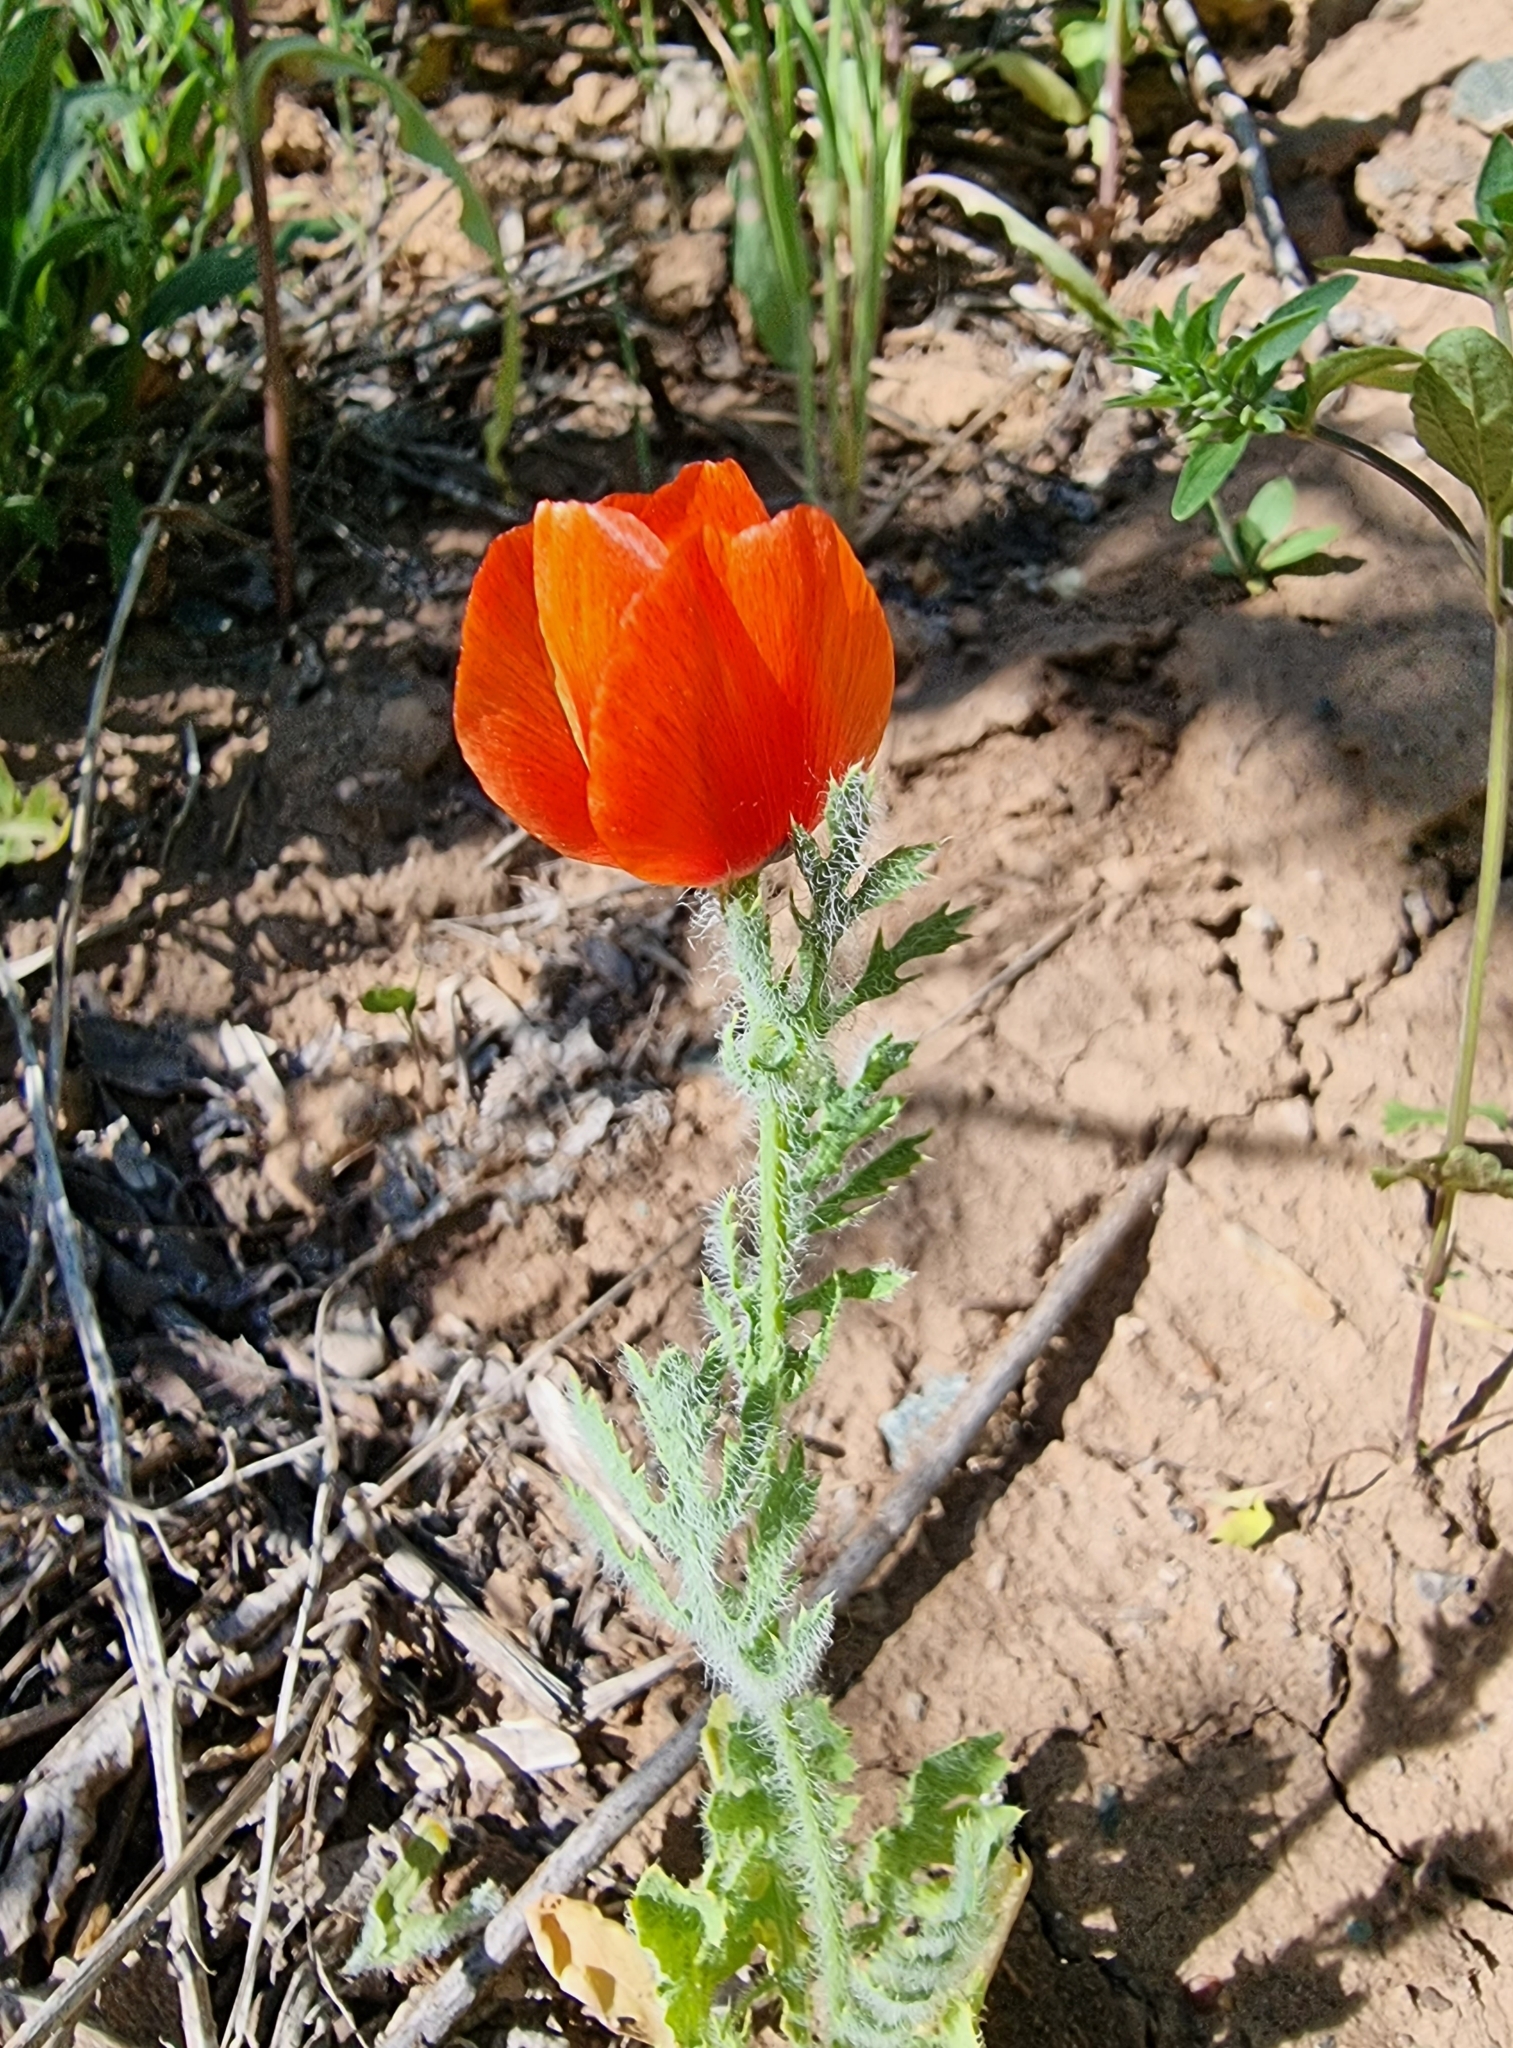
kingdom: Plantae
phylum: Tracheophyta
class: Magnoliopsida
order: Ranunculales
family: Papaveraceae
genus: Glaucium
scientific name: Glaucium corniculatum
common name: Red horned-poppy
